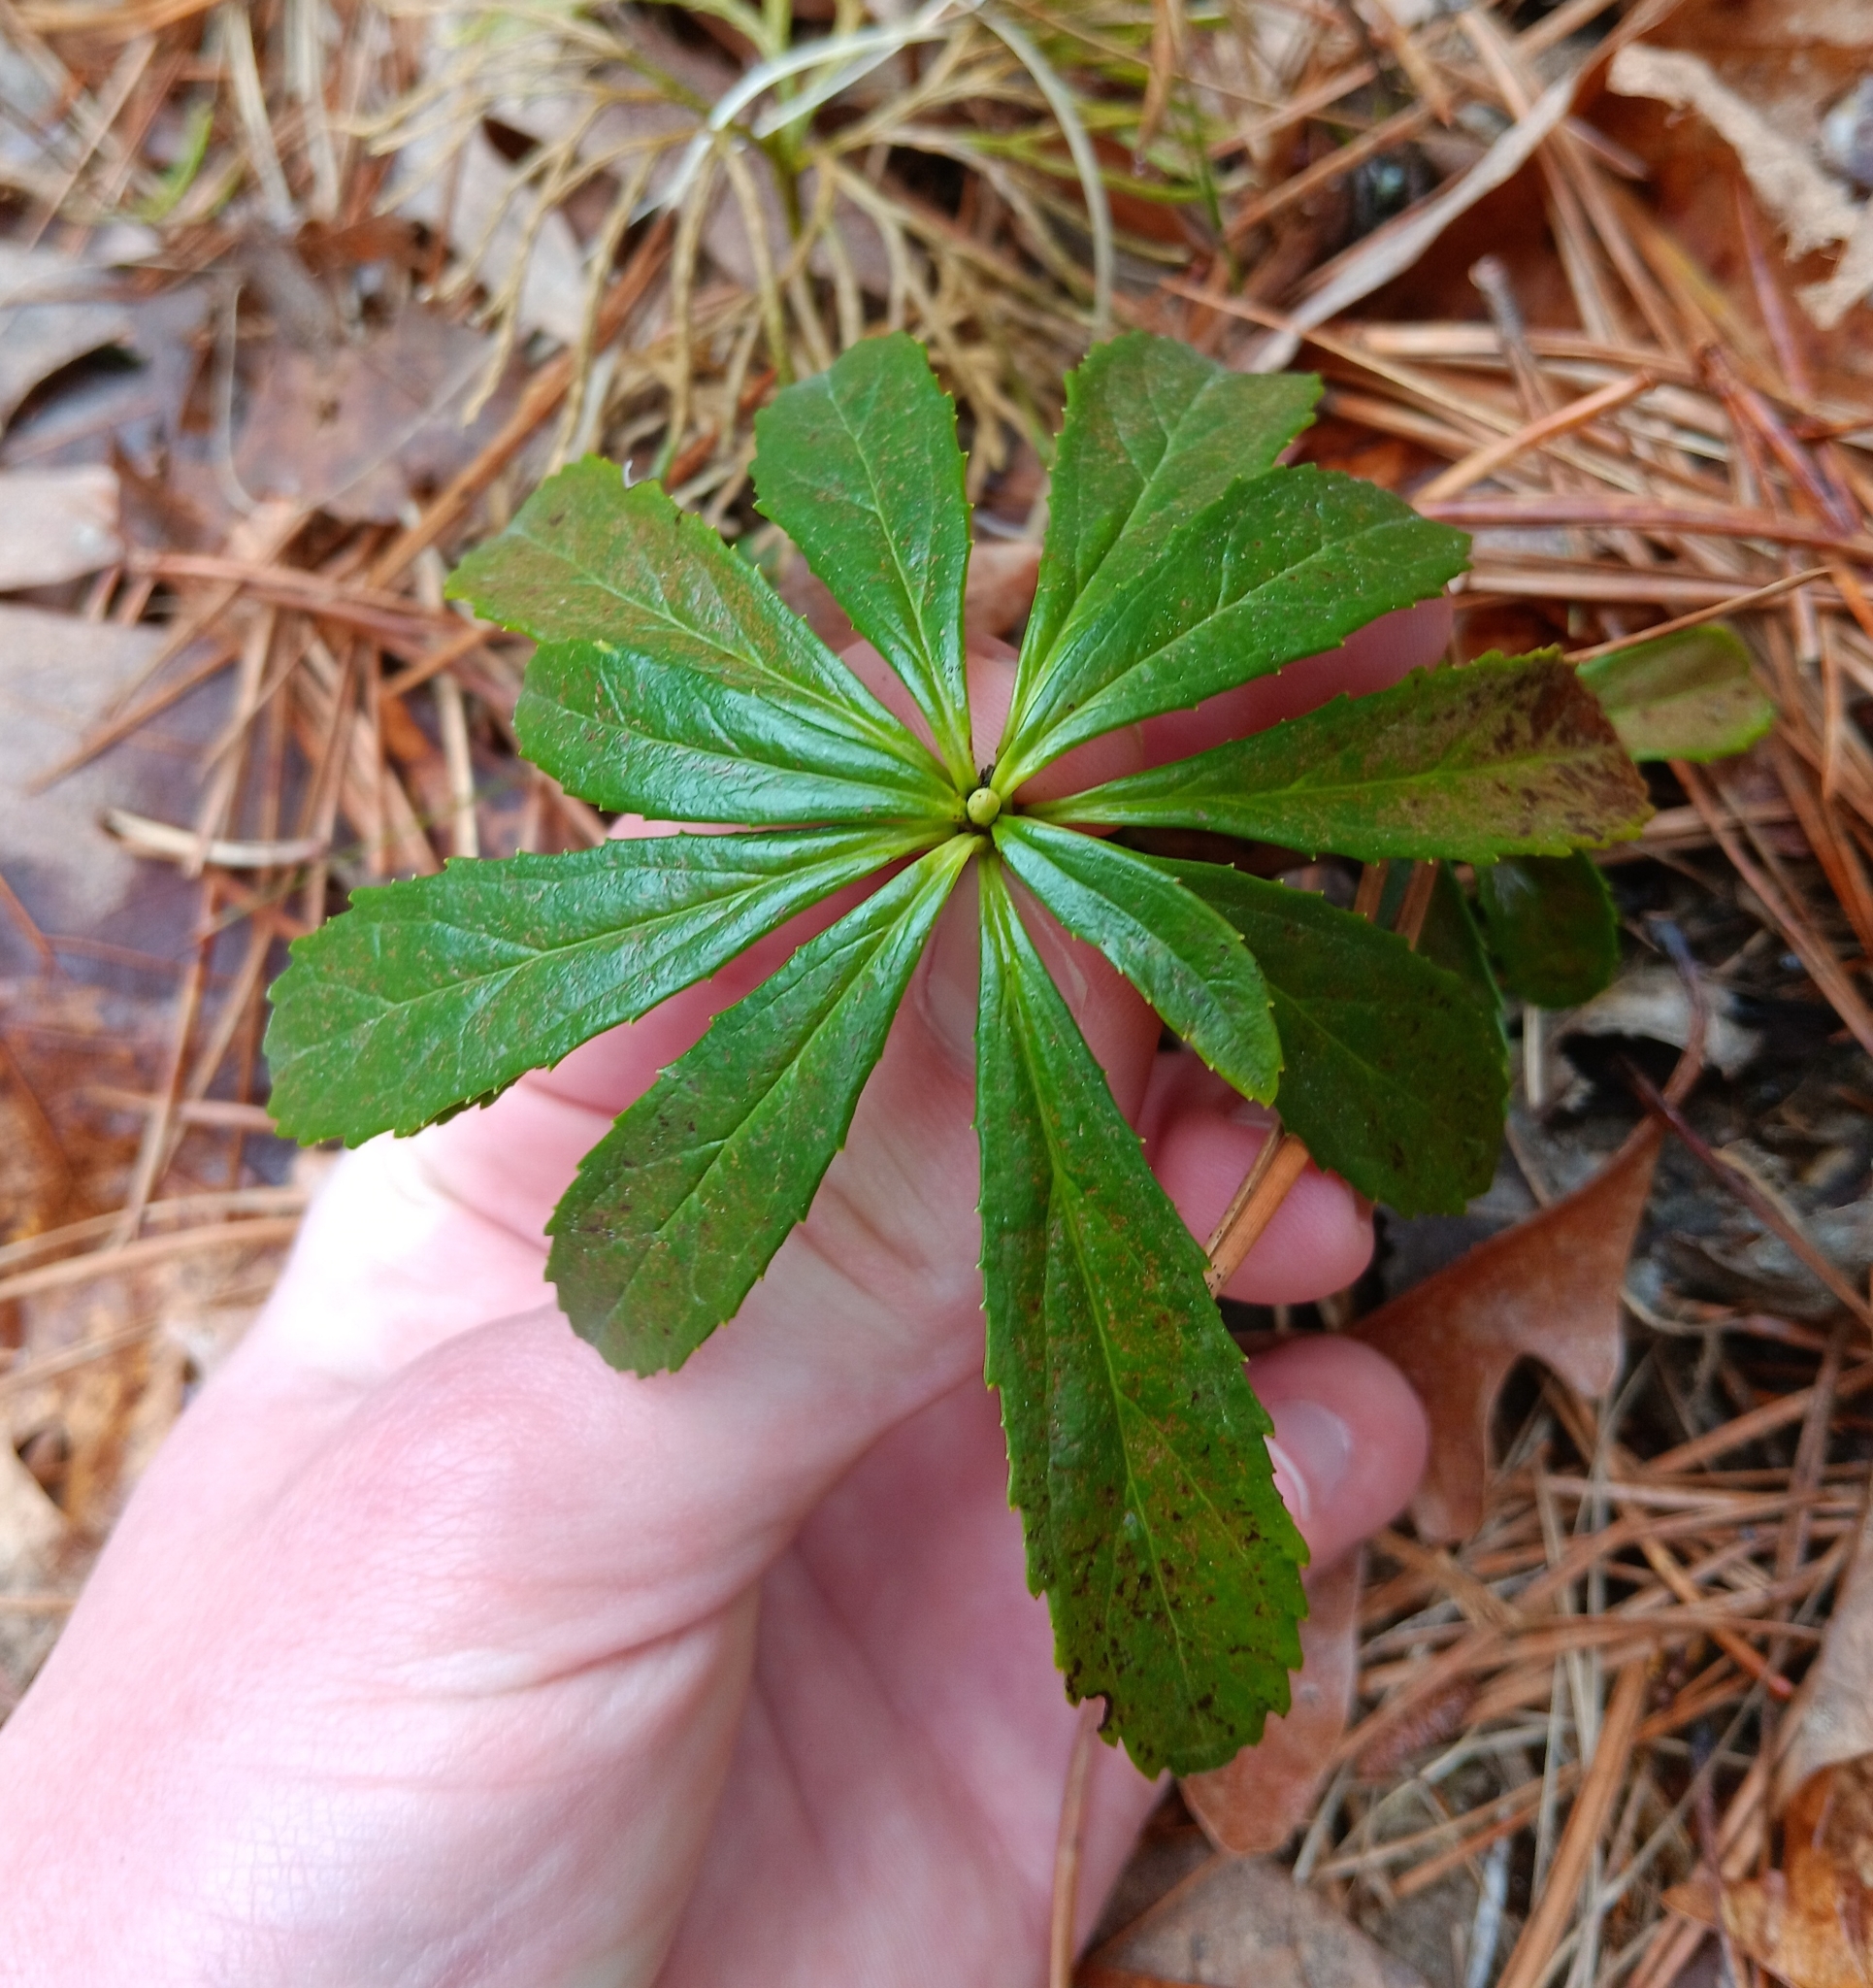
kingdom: Plantae
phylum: Tracheophyta
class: Magnoliopsida
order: Ericales
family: Ericaceae
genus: Chimaphila
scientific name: Chimaphila umbellata
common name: Pipsissewa
